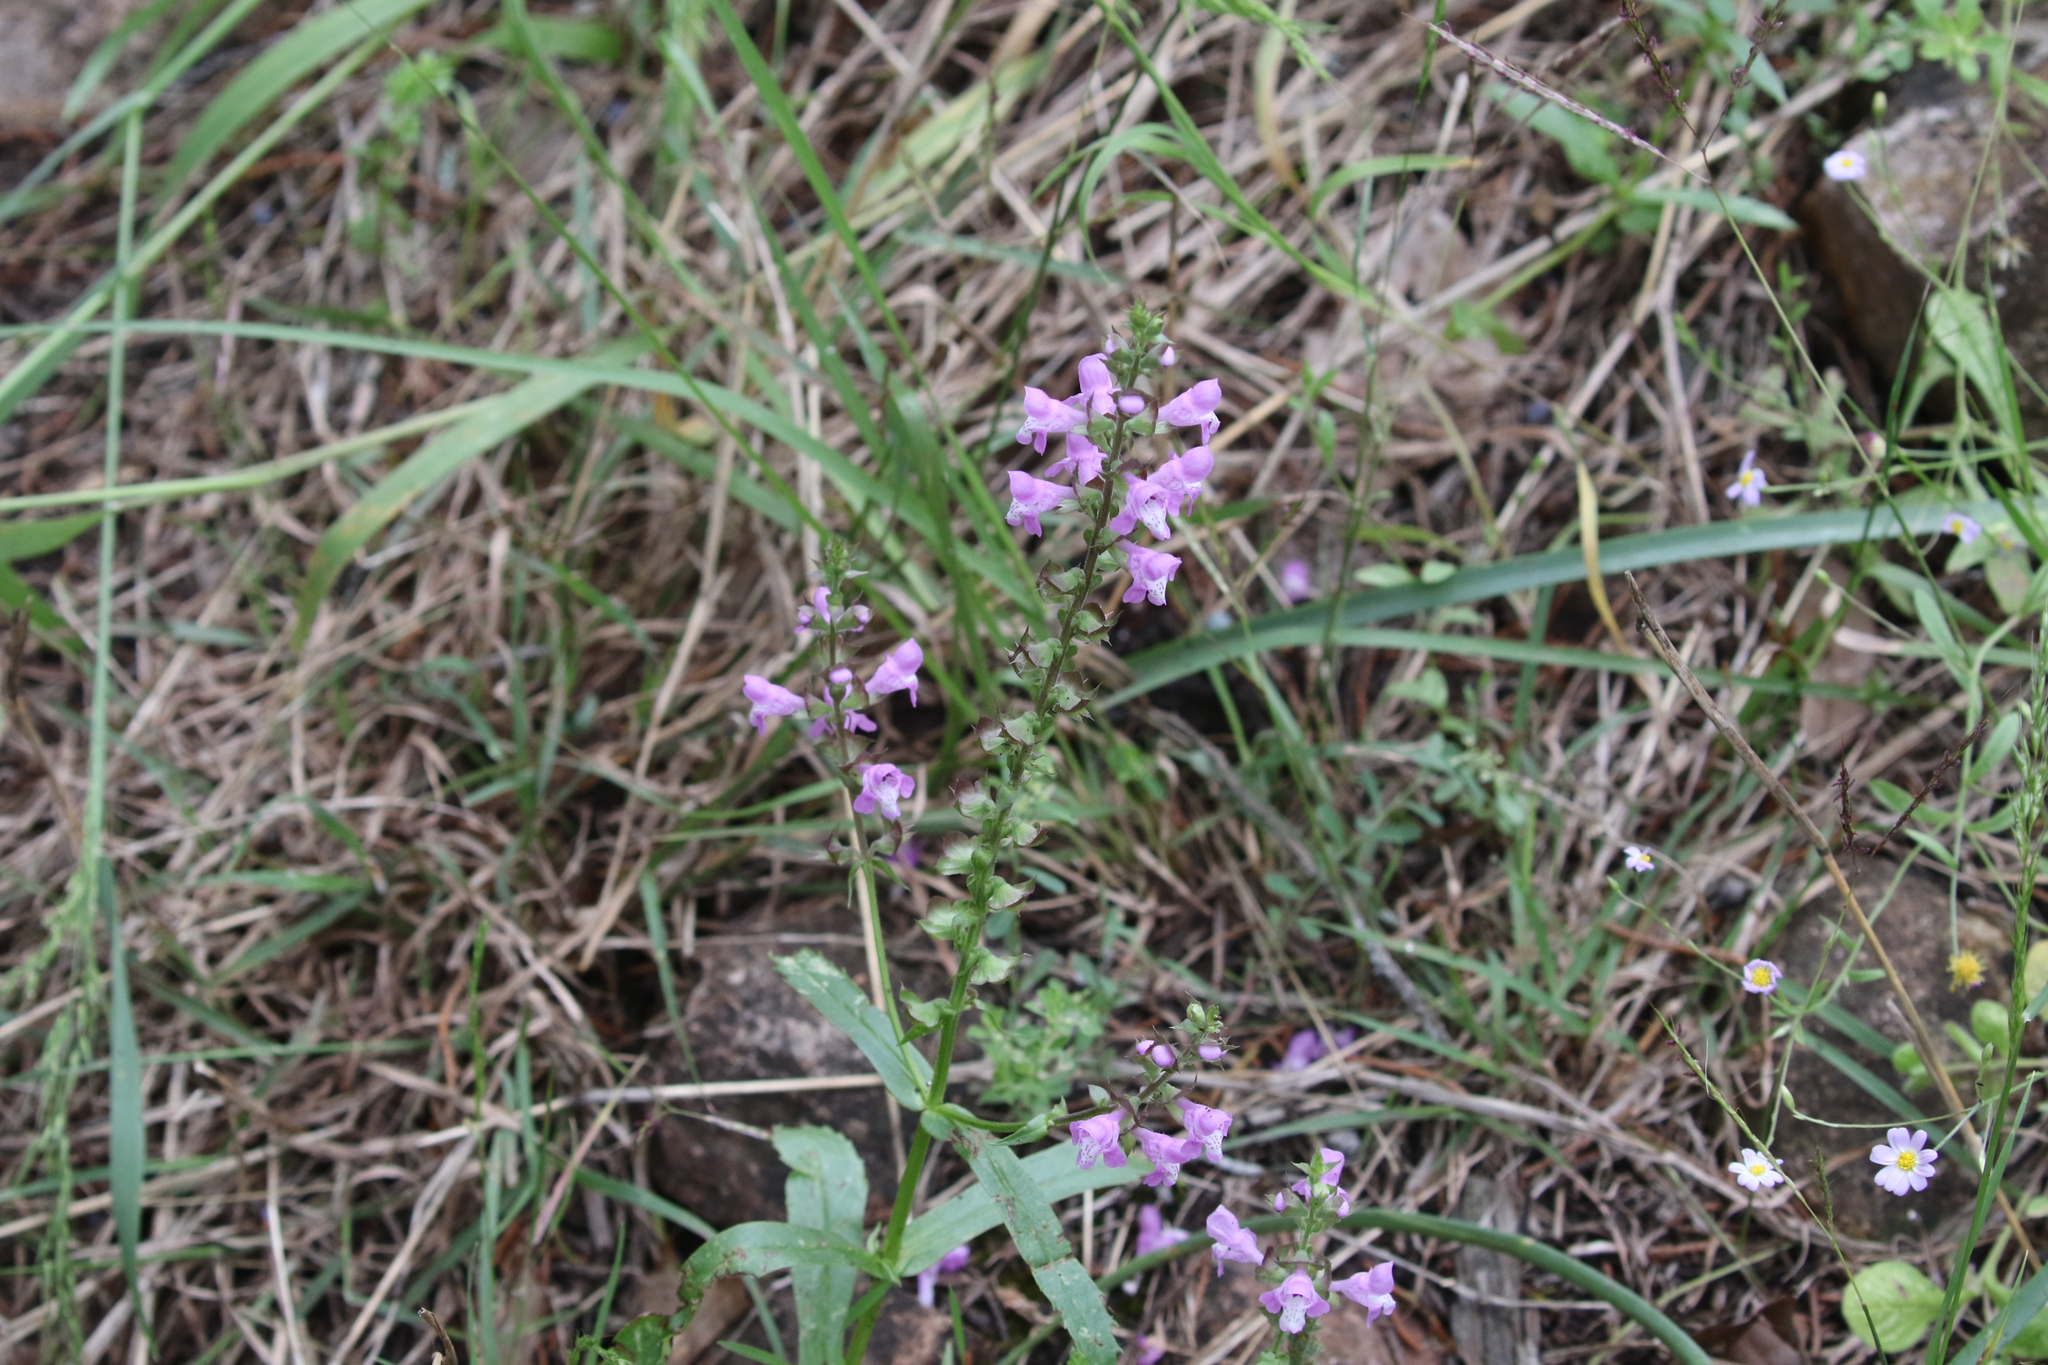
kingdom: Plantae
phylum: Tracheophyta
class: Magnoliopsida
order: Lamiales
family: Lamiaceae
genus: Warnockia
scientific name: Warnockia scutellarioides
